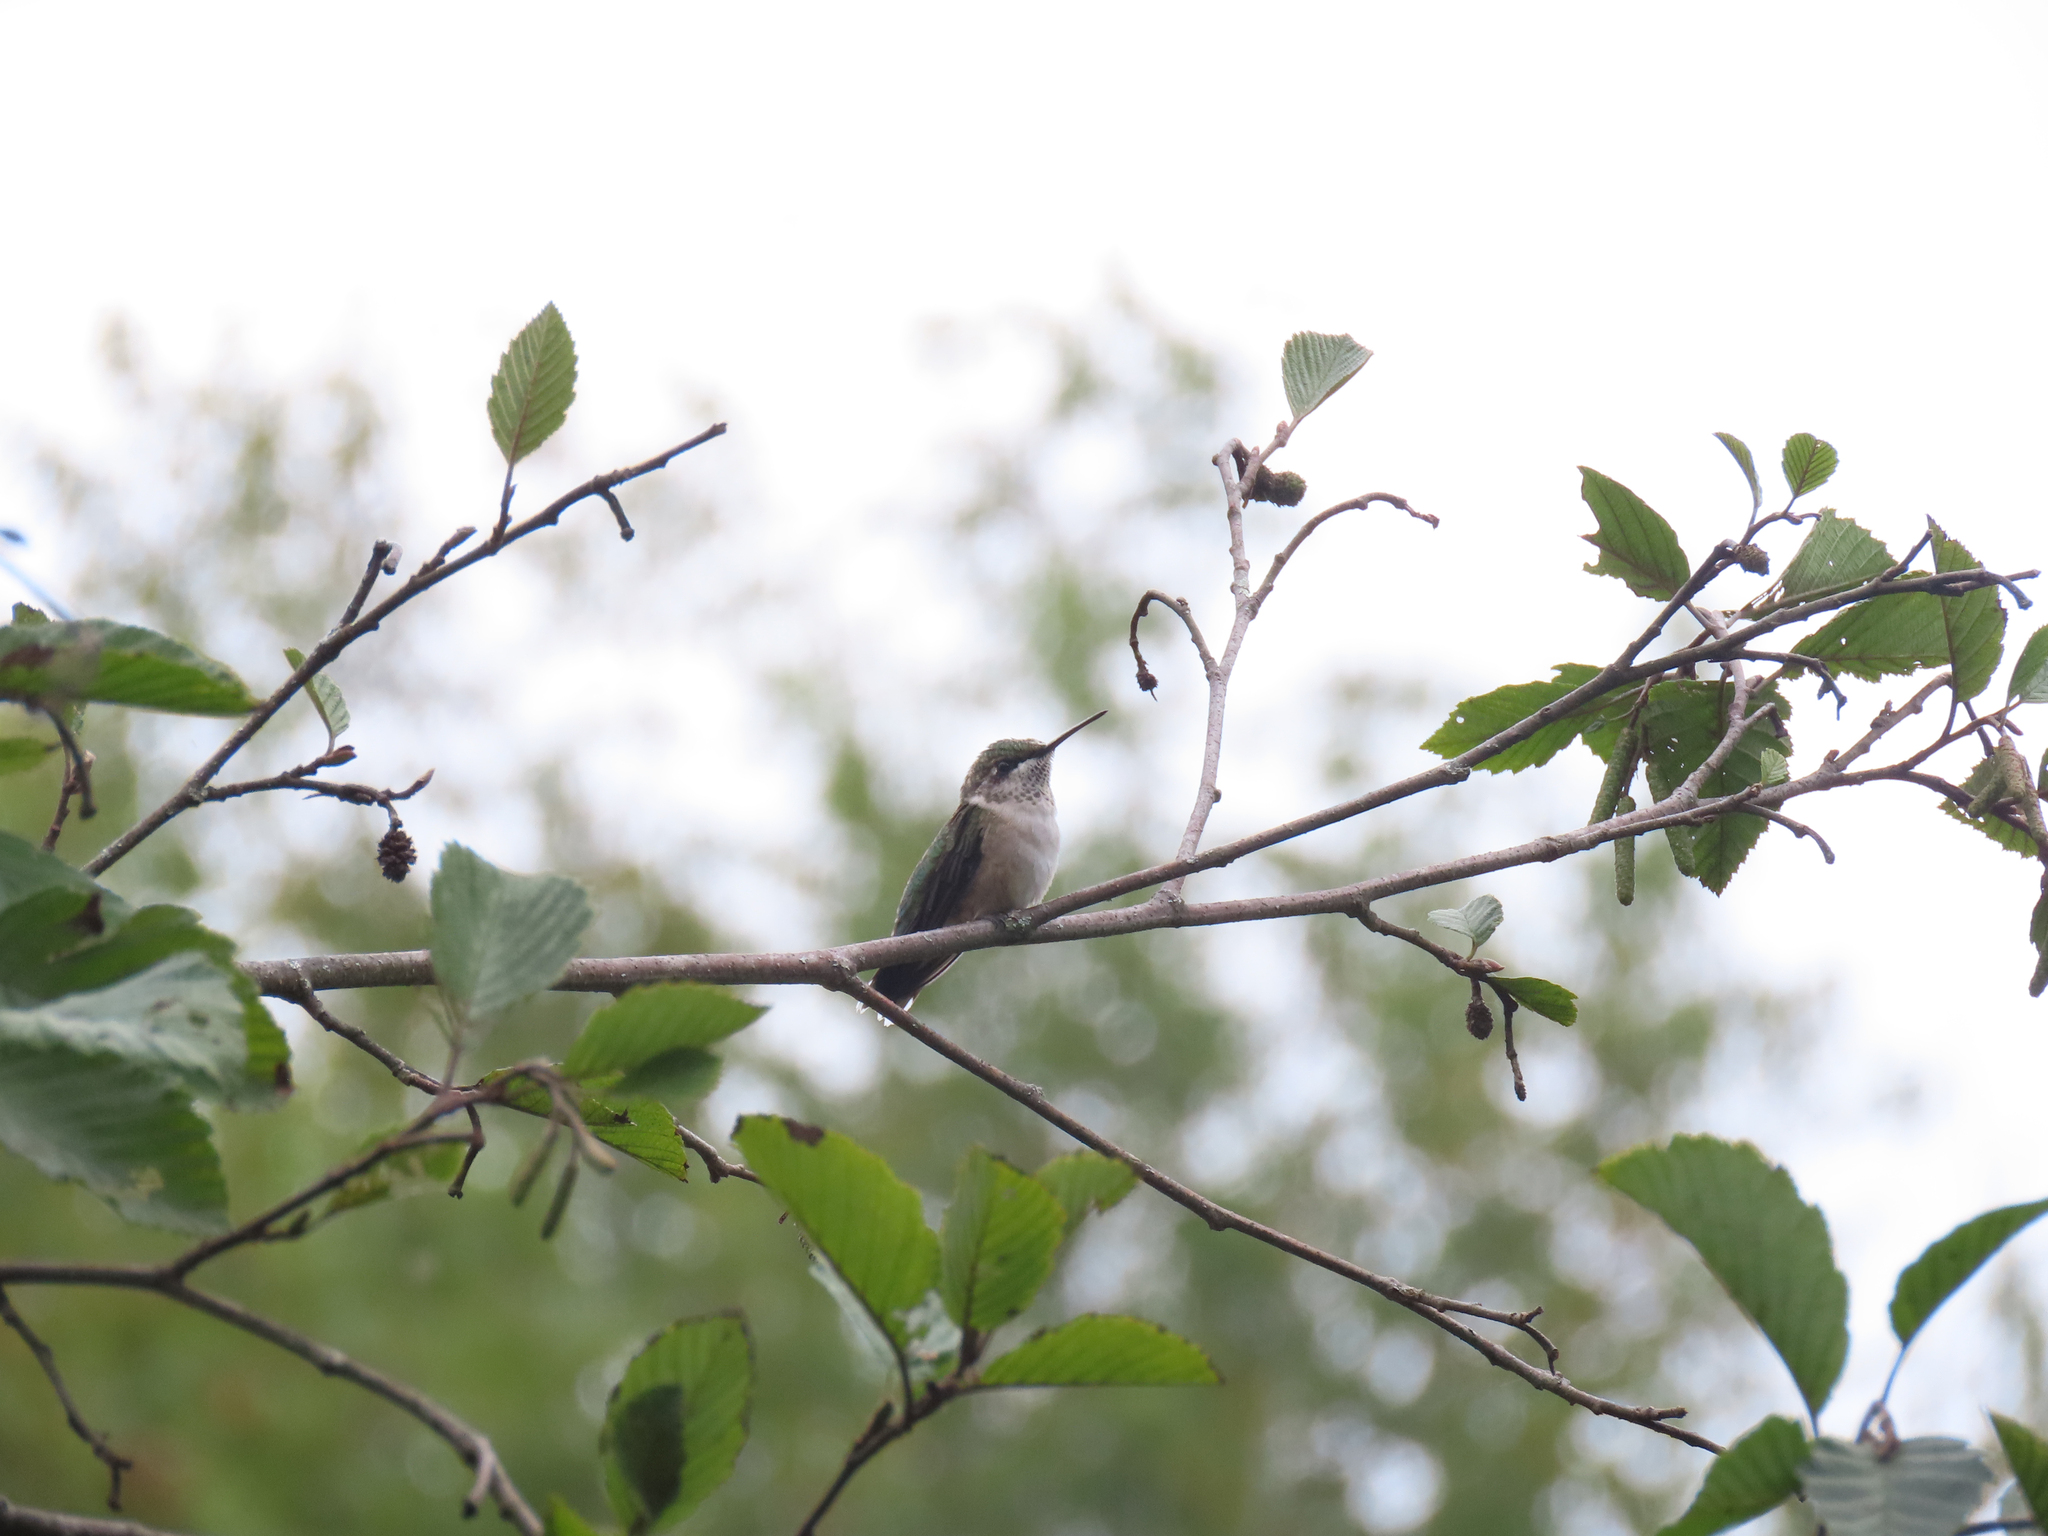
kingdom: Animalia
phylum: Chordata
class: Aves
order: Apodiformes
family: Trochilidae
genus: Archilochus
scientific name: Archilochus colubris
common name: Ruby-throated hummingbird
